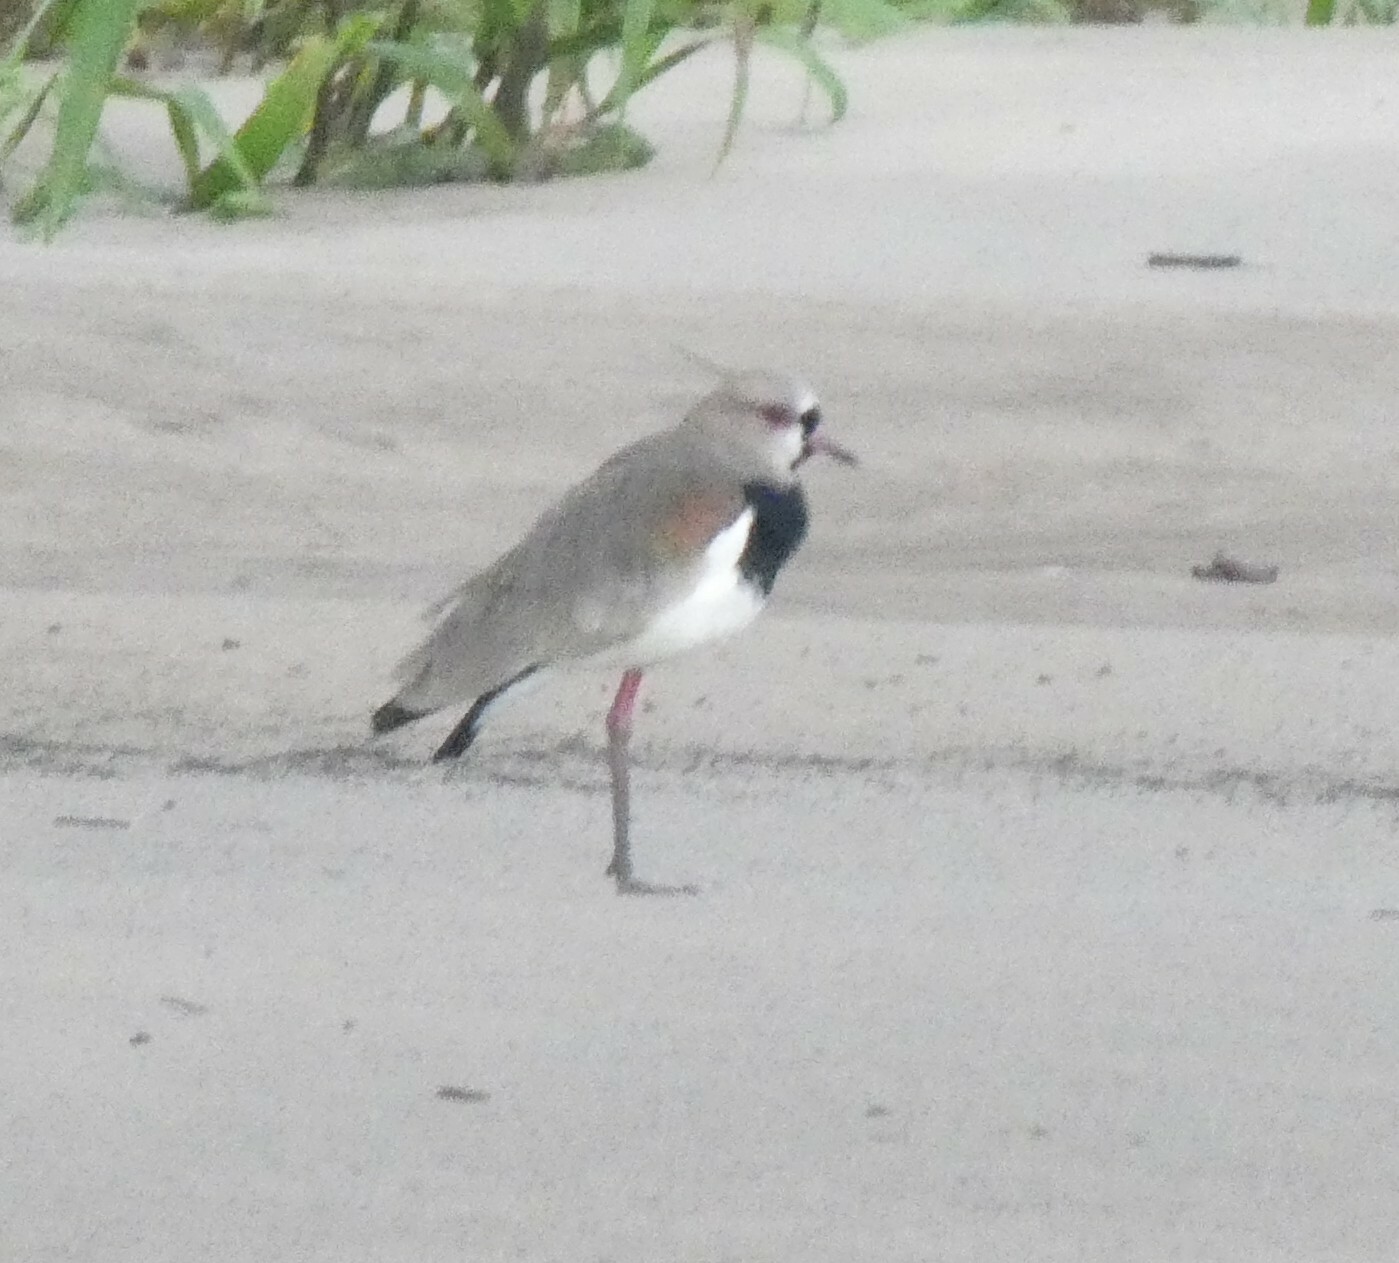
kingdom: Animalia
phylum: Chordata
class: Aves
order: Charadriiformes
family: Charadriidae
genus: Vanellus
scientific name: Vanellus chilensis
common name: Southern lapwing
